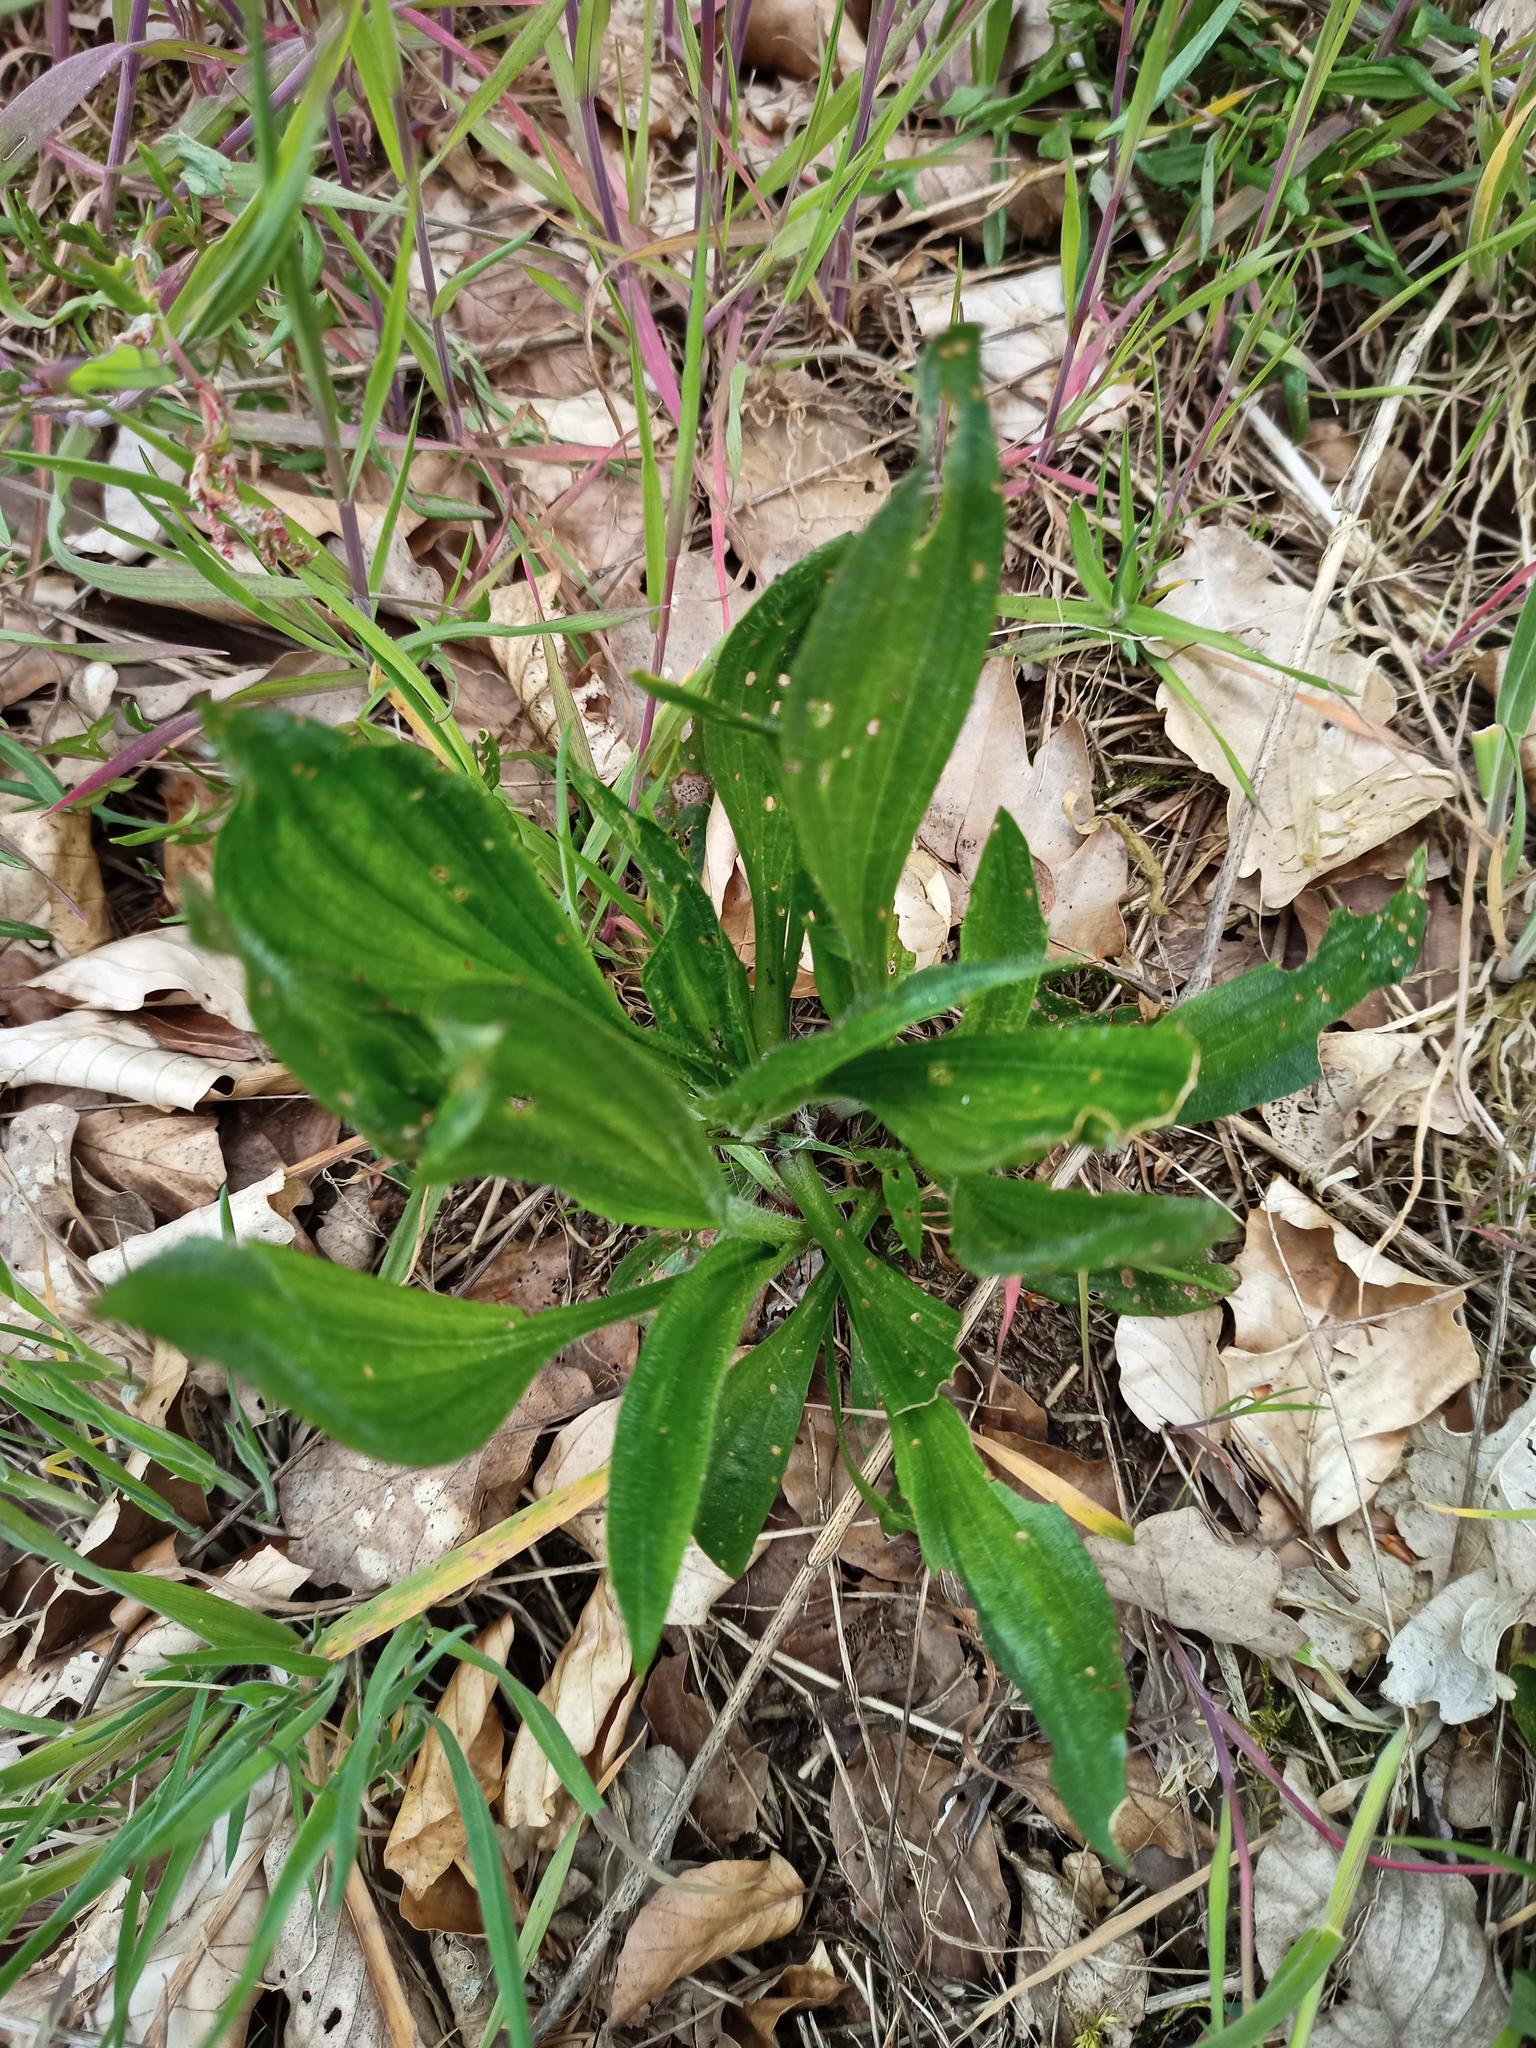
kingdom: Plantae
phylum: Tracheophyta
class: Magnoliopsida
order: Lamiales
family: Plantaginaceae
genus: Plantago
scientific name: Plantago lanceolata
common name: Ribwort plantain
